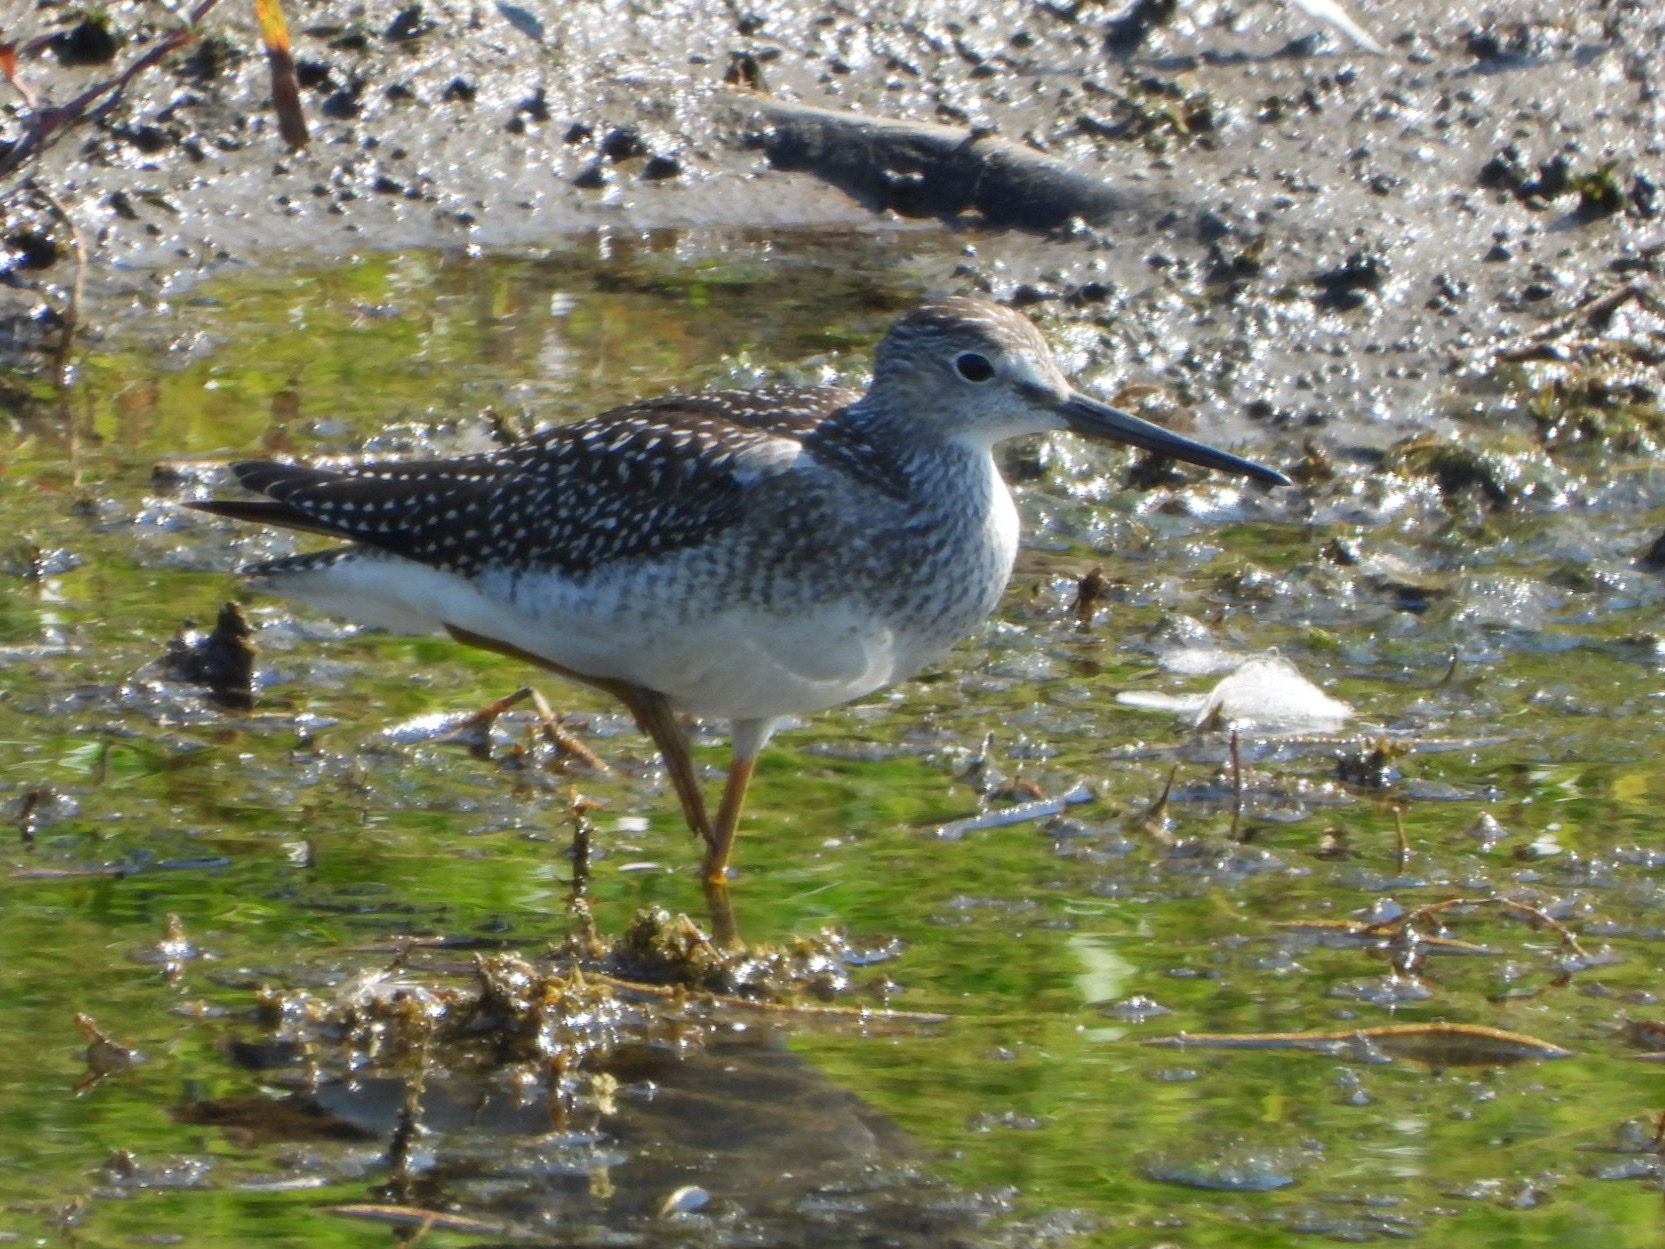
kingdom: Animalia
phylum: Chordata
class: Aves
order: Charadriiformes
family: Scolopacidae
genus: Tringa
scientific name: Tringa melanoleuca
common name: Greater yellowlegs
